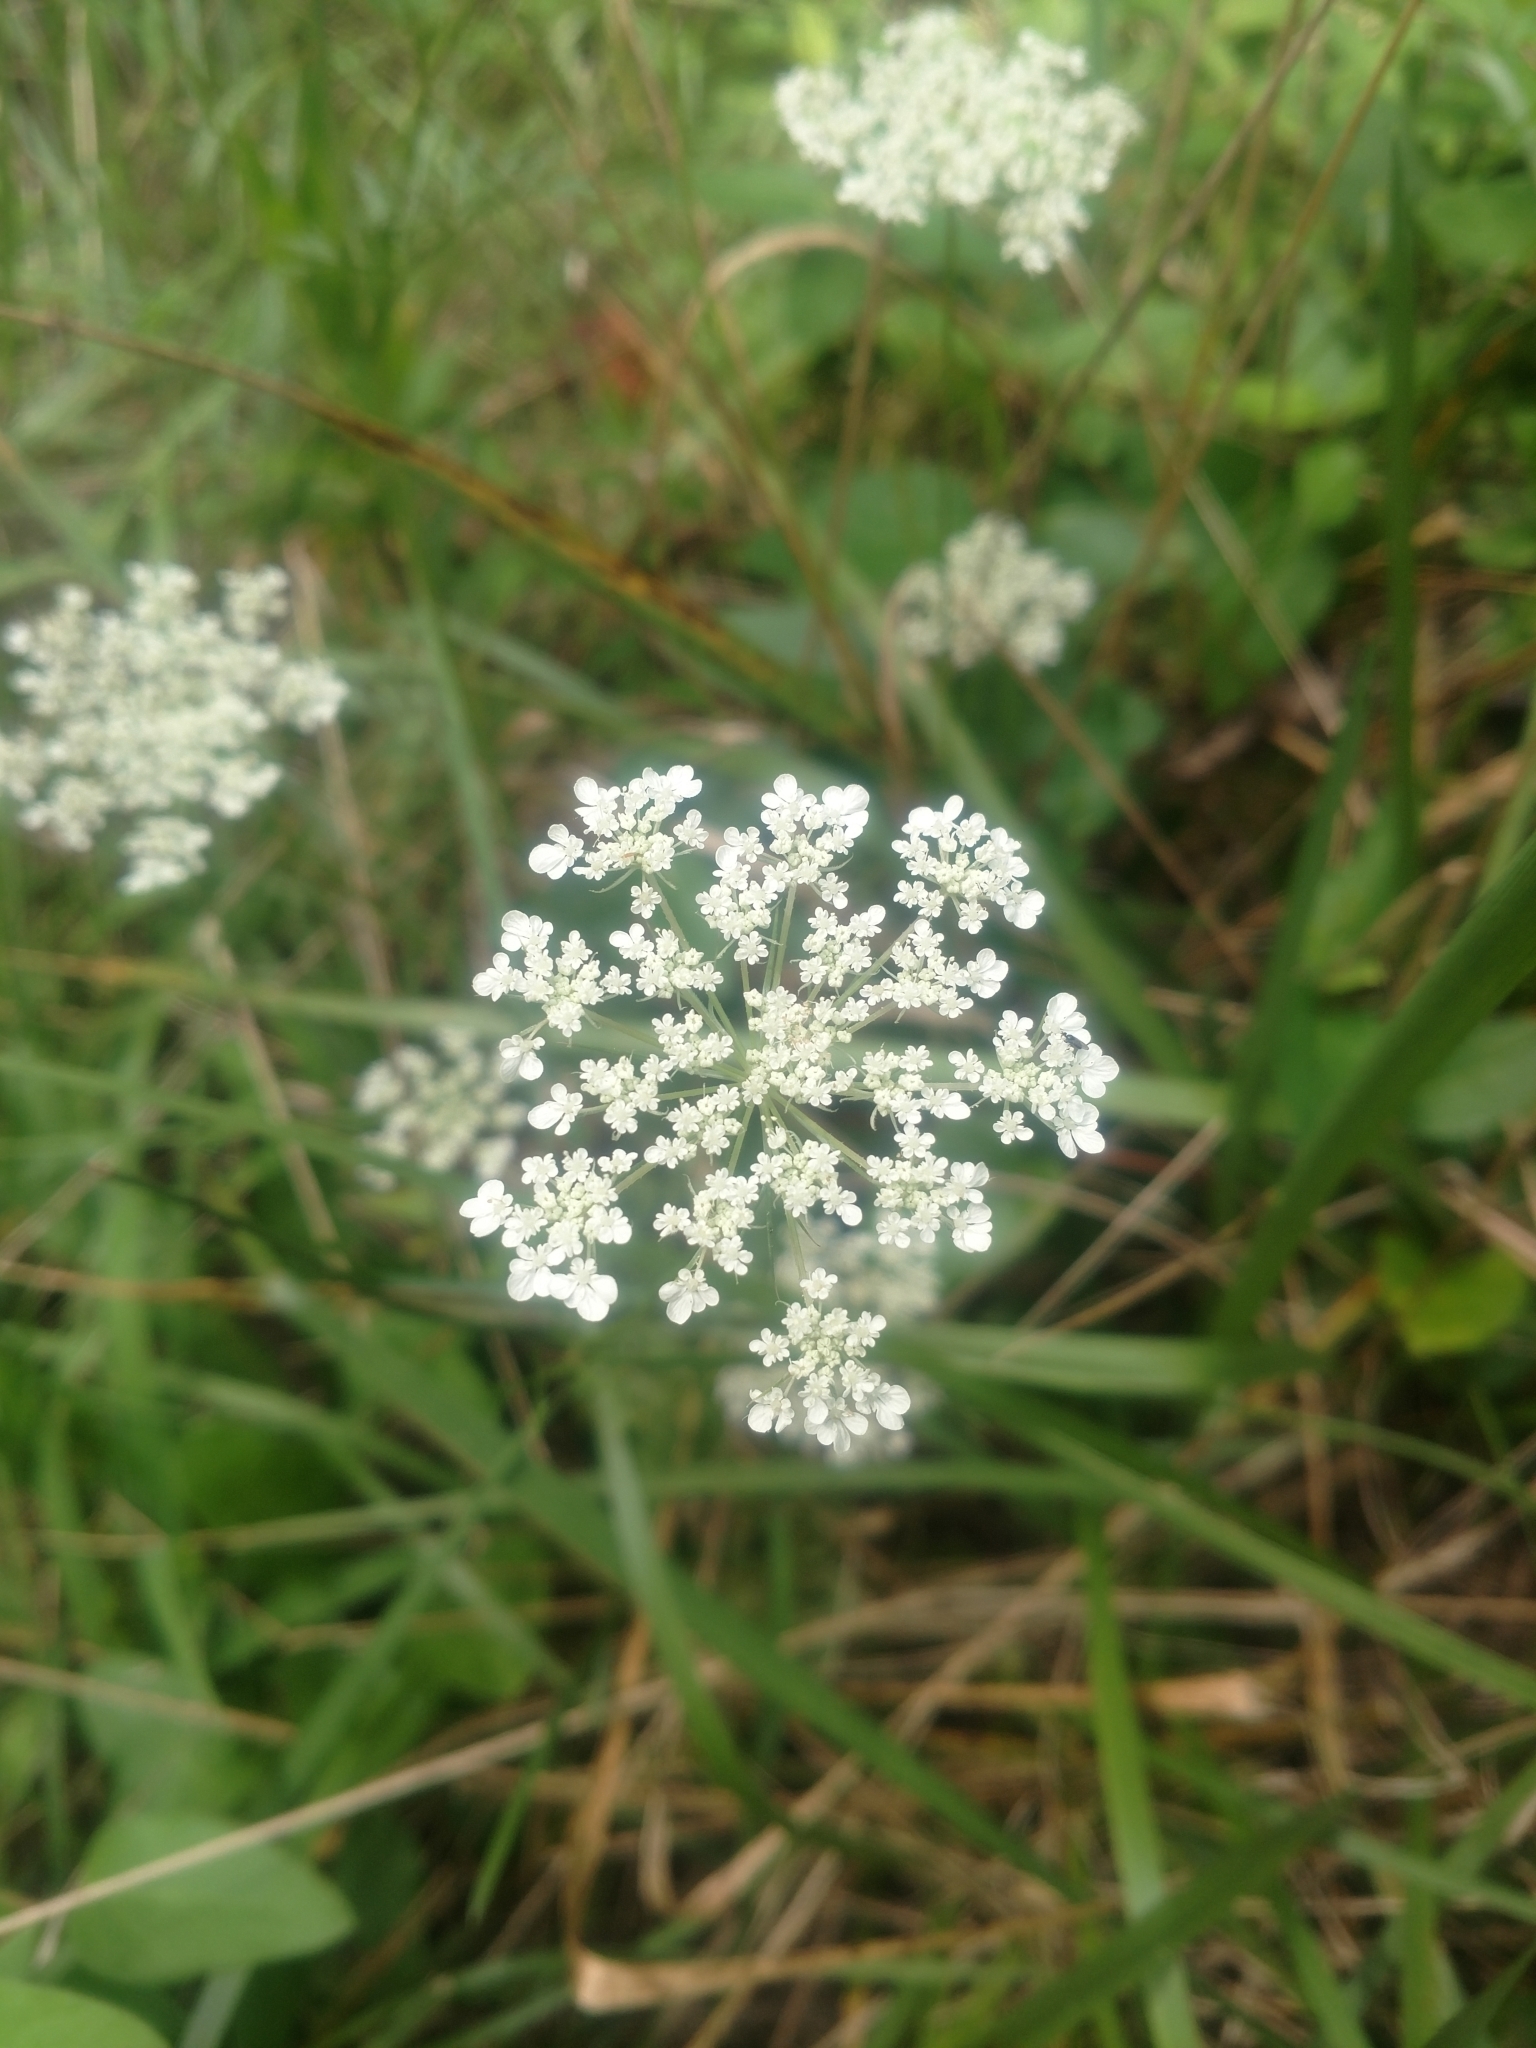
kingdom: Plantae
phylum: Tracheophyta
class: Magnoliopsida
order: Apiales
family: Apiaceae
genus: Daucus
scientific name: Daucus carota
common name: Wild carrot
